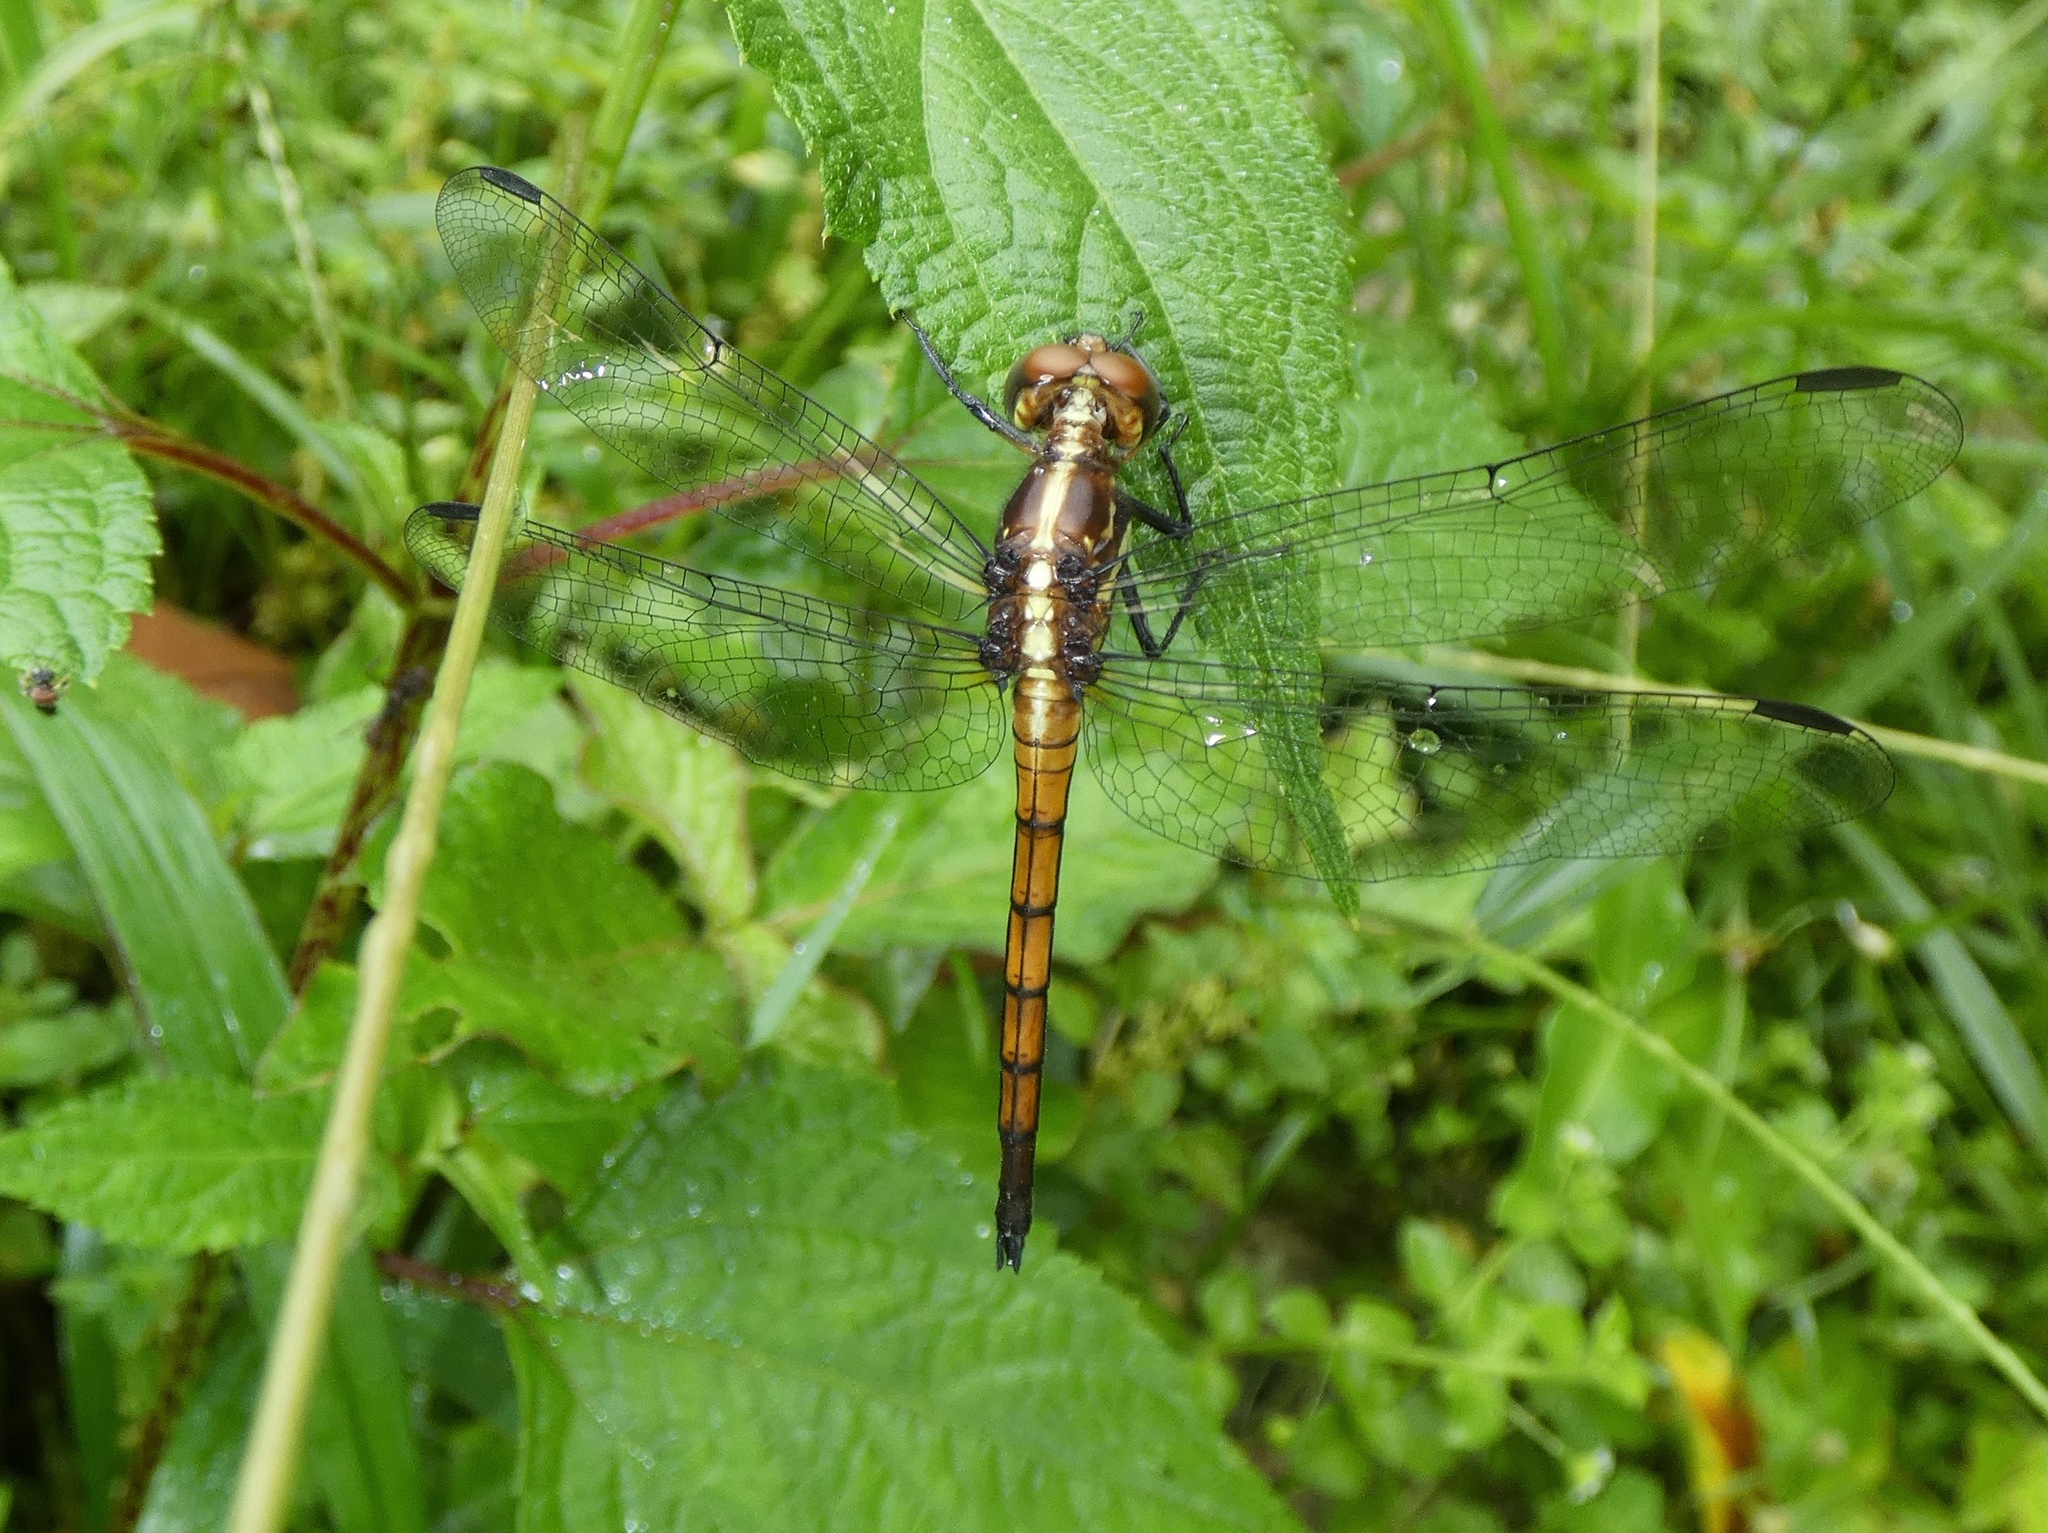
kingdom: Animalia
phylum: Arthropoda
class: Insecta
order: Odonata
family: Libellulidae
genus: Cannaphila
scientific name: Cannaphila vibex
